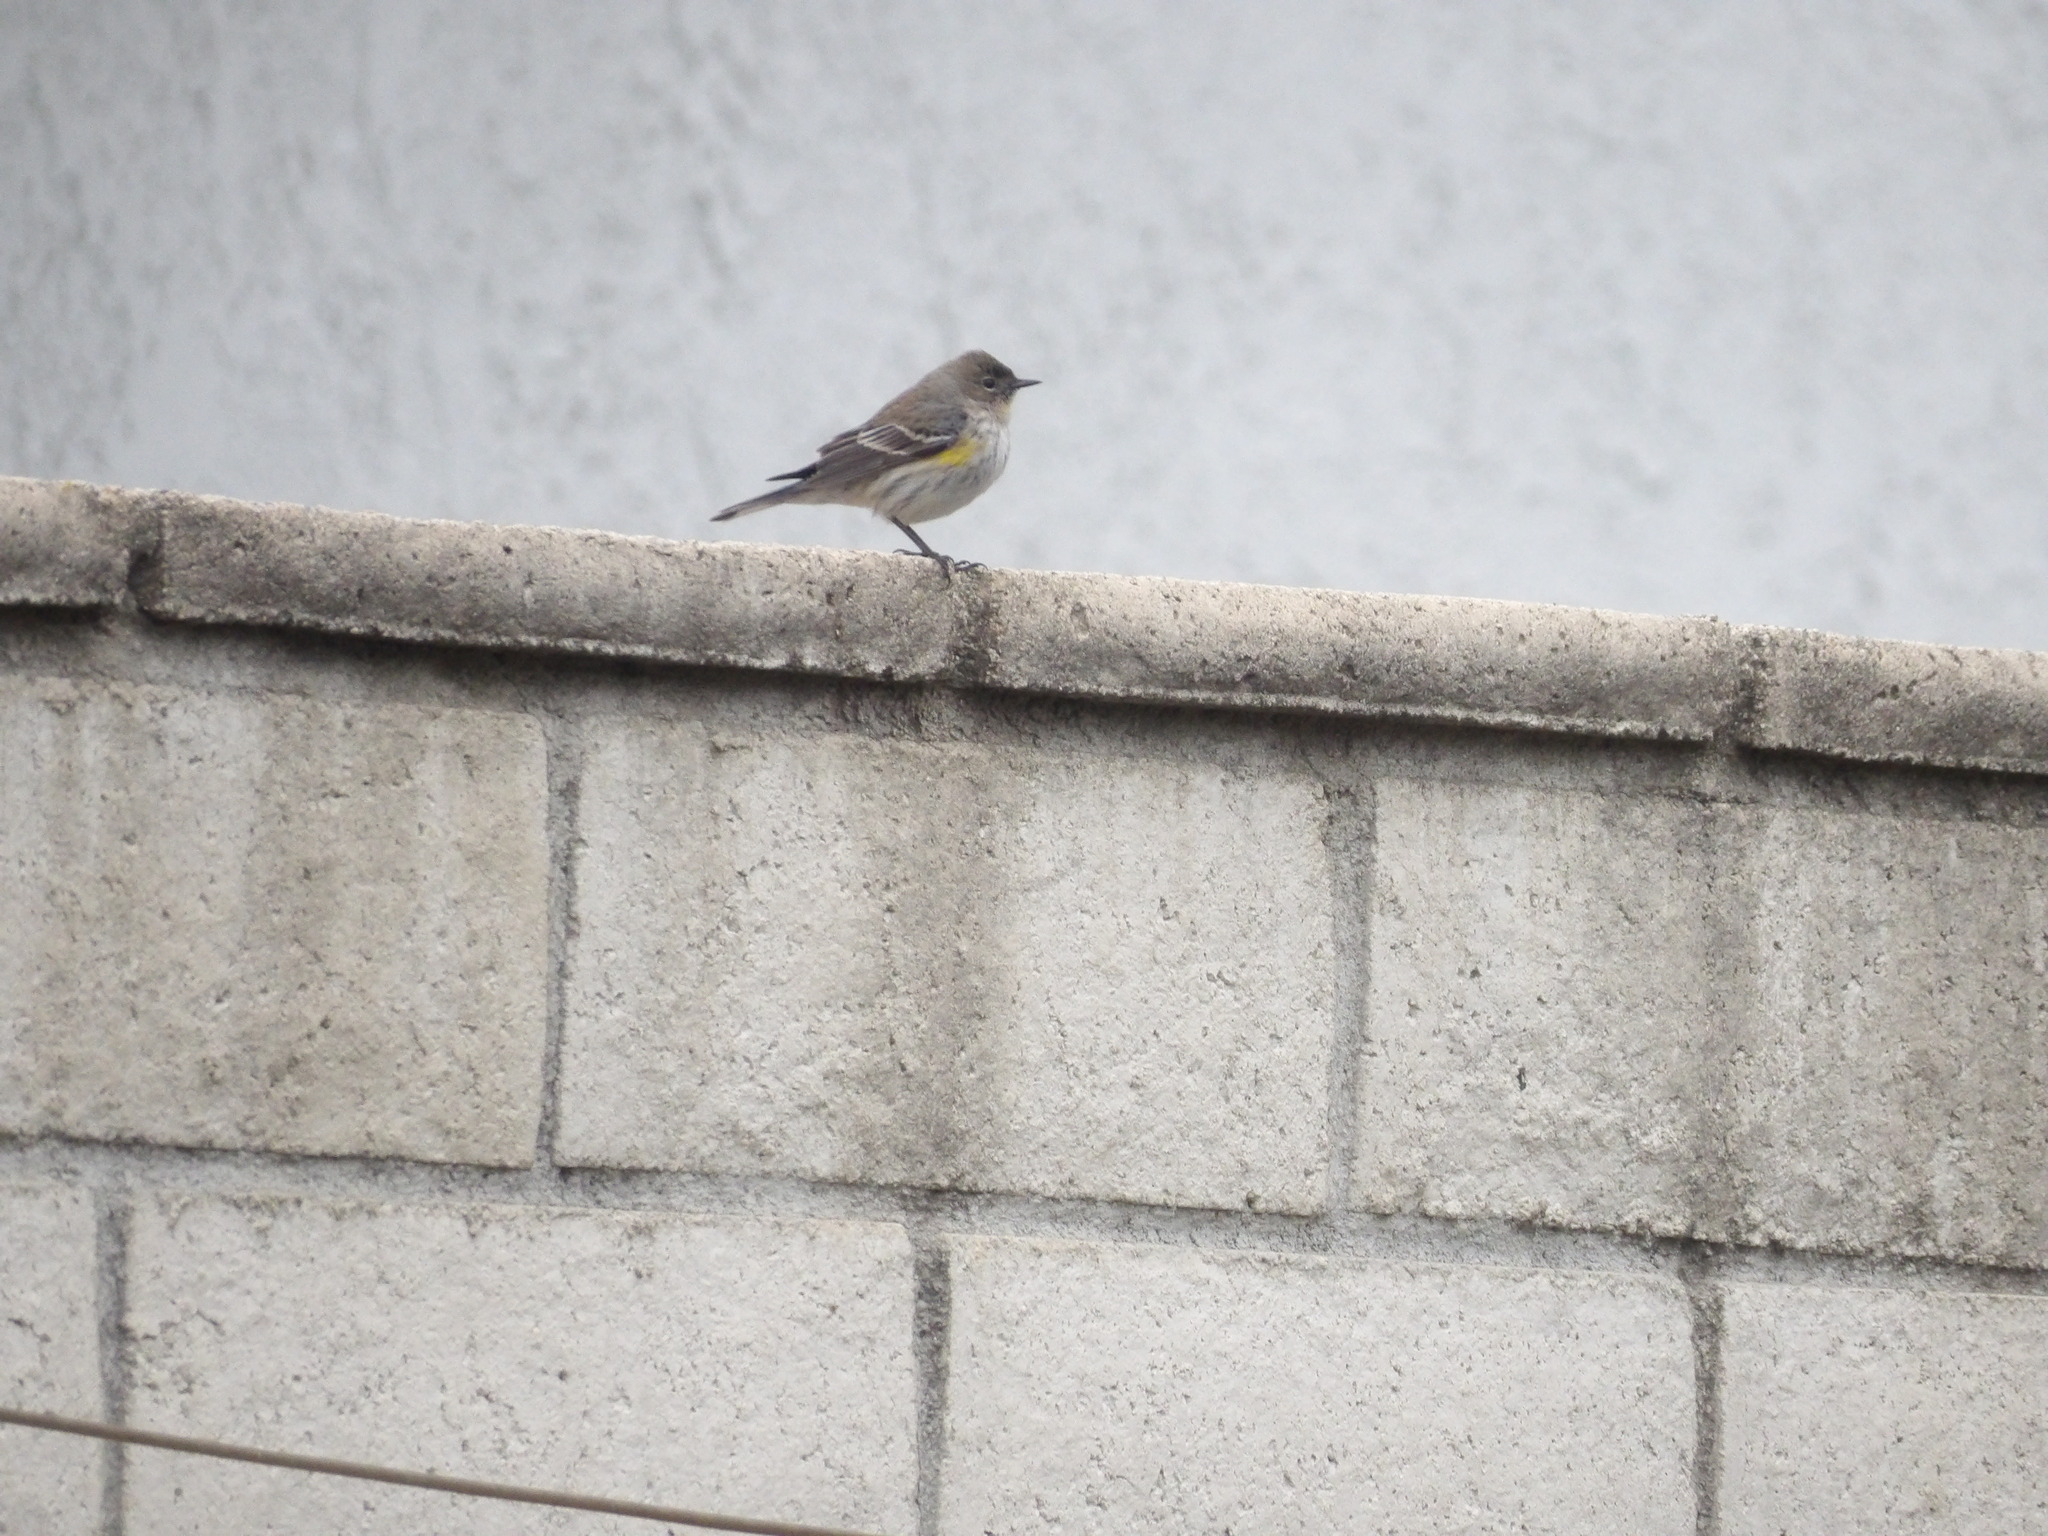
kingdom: Animalia
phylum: Chordata
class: Aves
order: Passeriformes
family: Parulidae
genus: Setophaga
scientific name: Setophaga coronata
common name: Myrtle warbler
